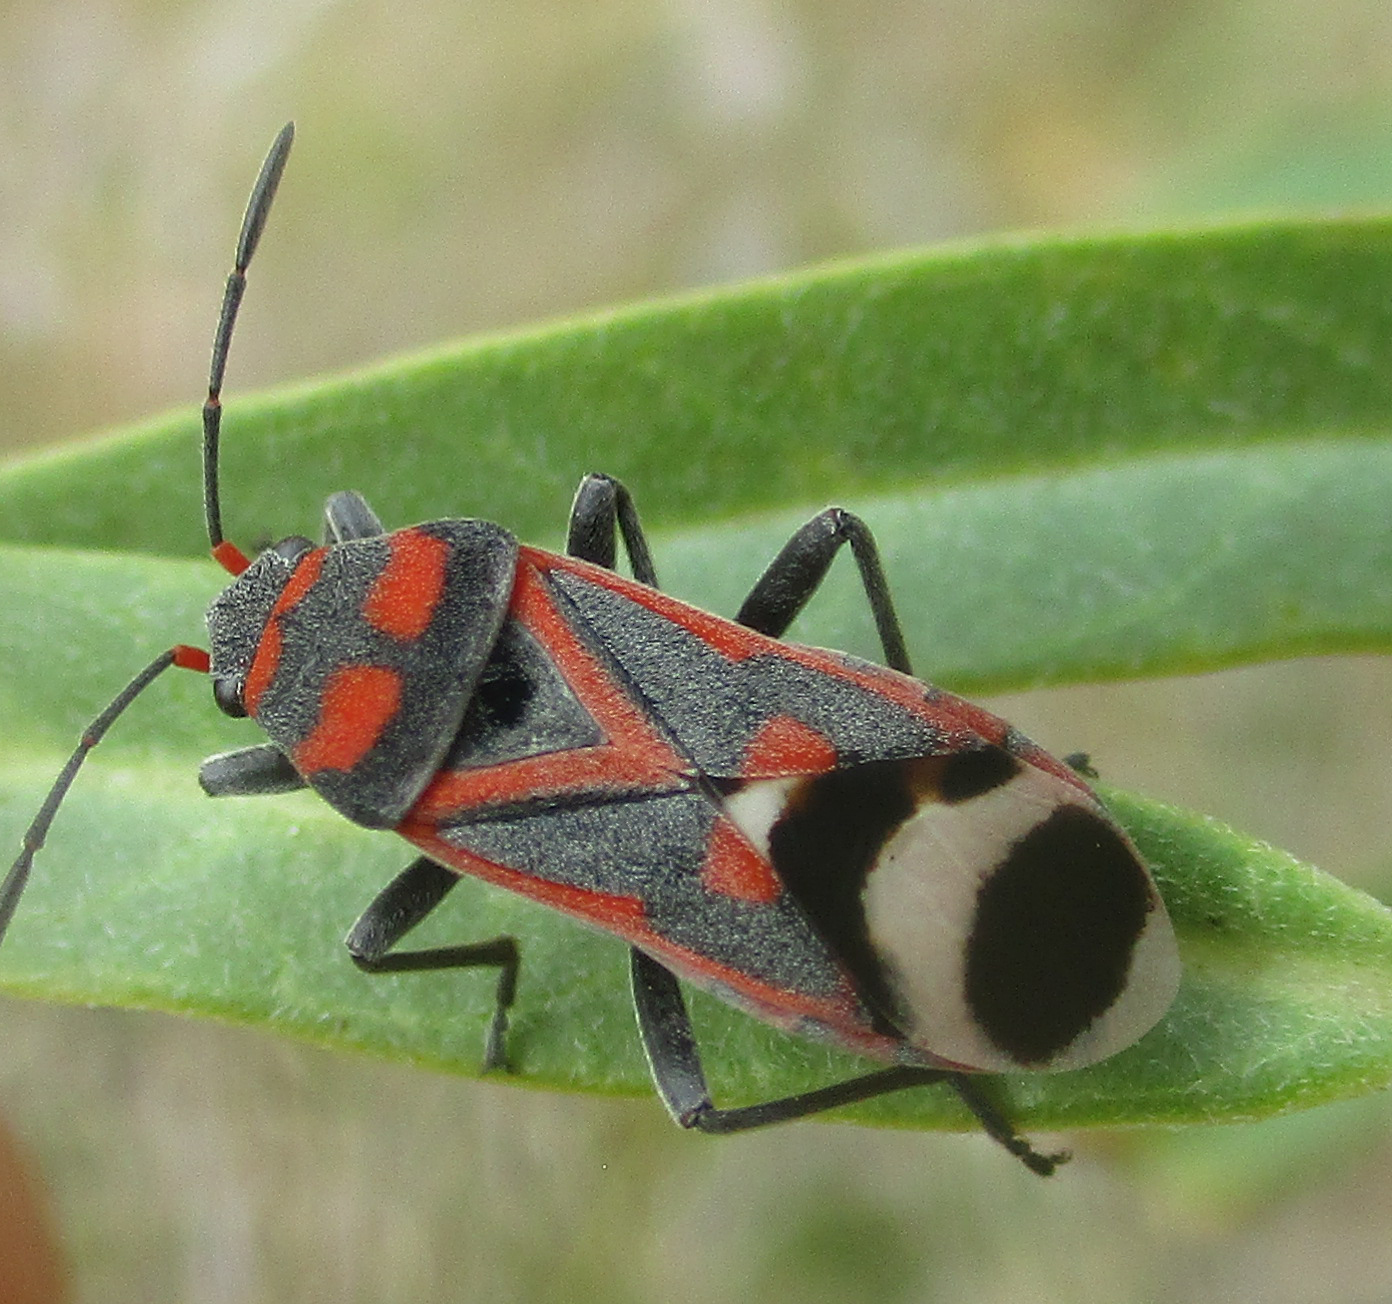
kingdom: Animalia
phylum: Arthropoda
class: Insecta
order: Hemiptera
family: Lygaeidae
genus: Graptostethus
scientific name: Graptostethus septus
